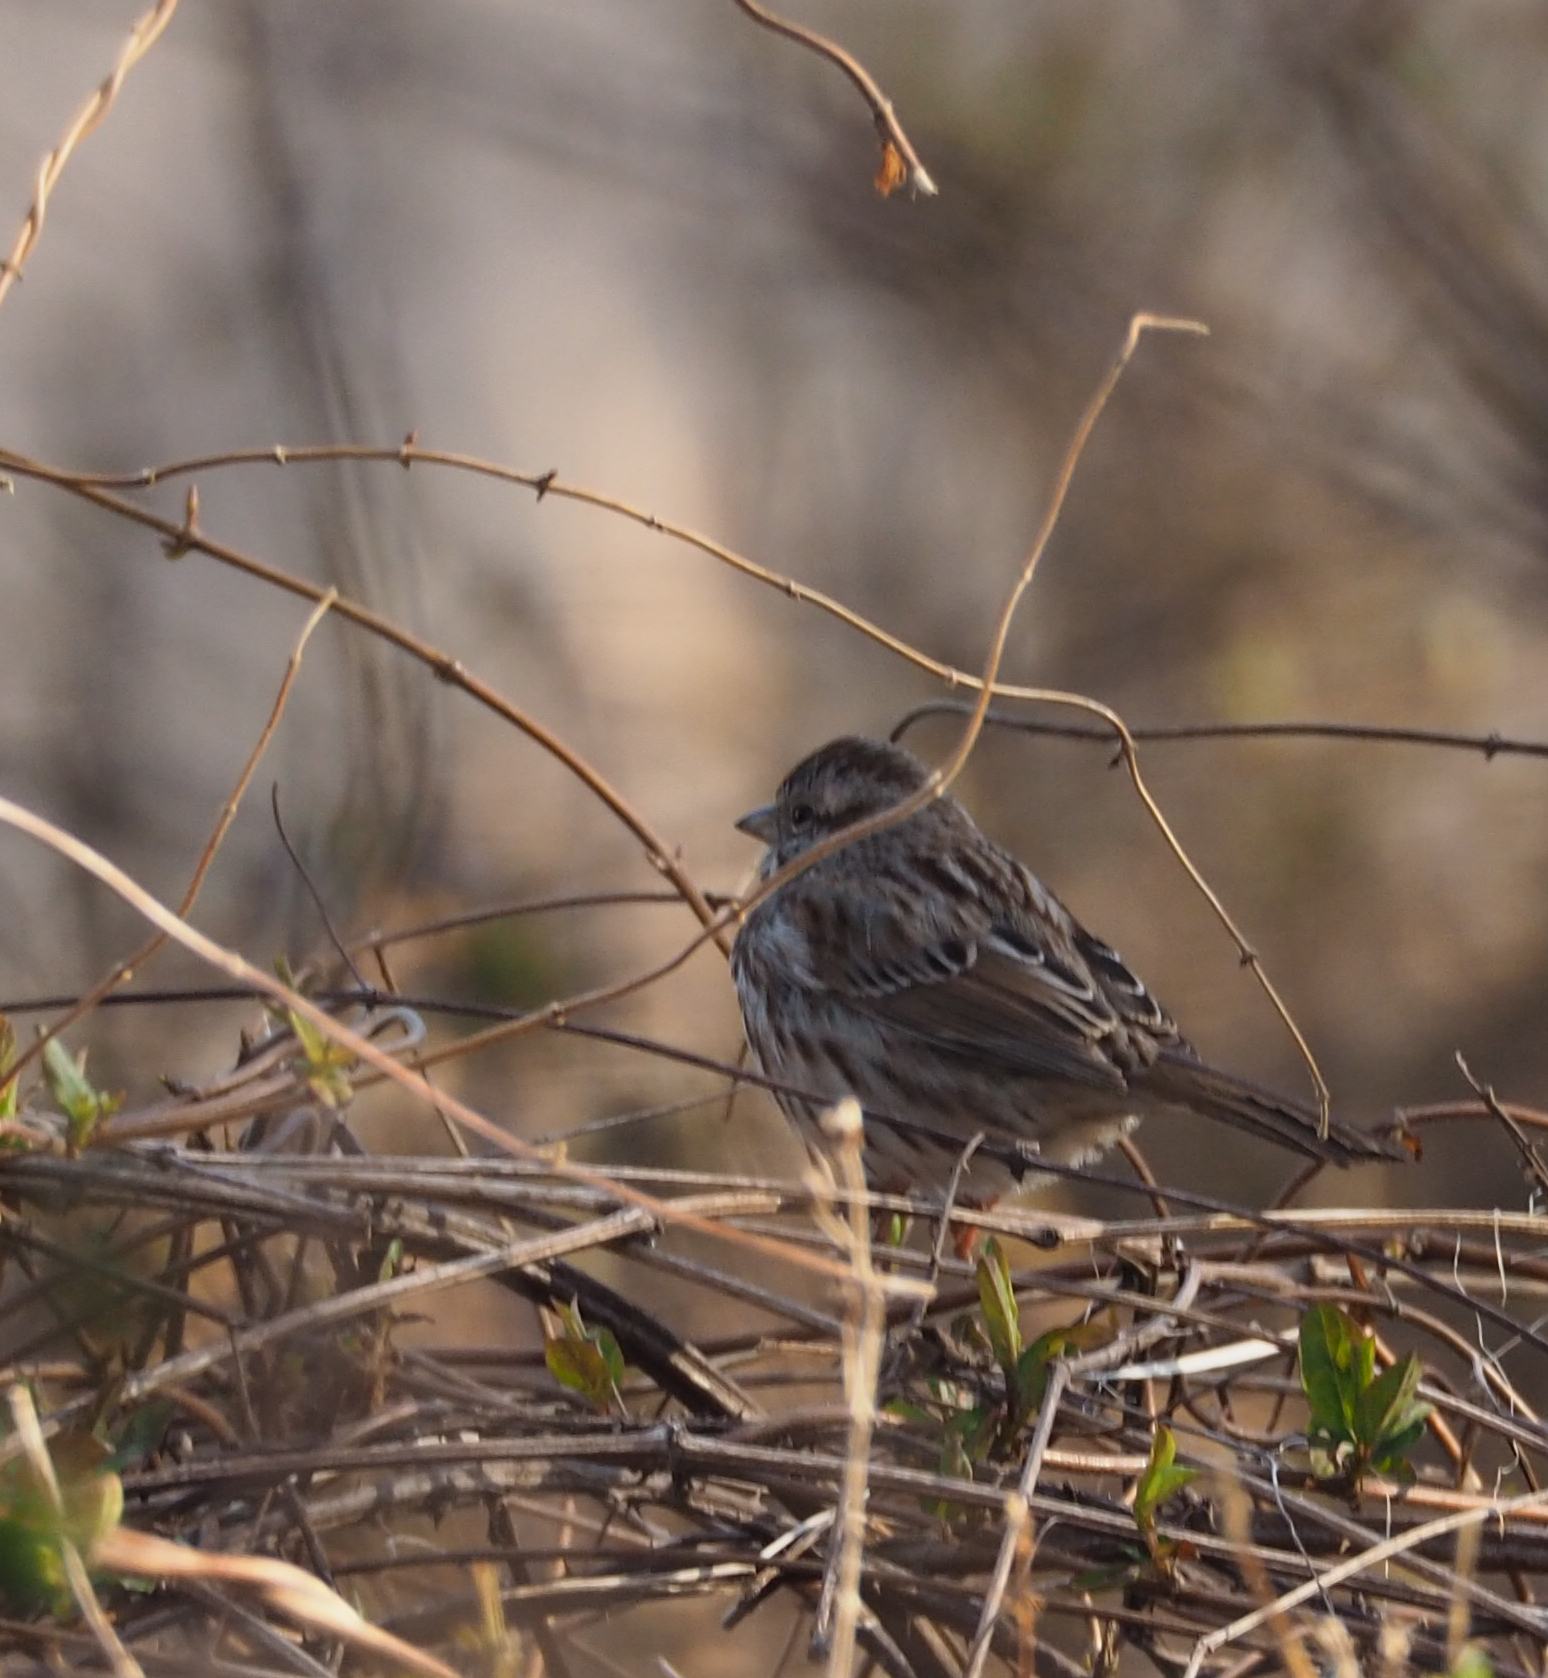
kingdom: Animalia
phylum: Chordata
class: Aves
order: Passeriformes
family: Passerellidae
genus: Melospiza
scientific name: Melospiza melodia
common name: Song sparrow
